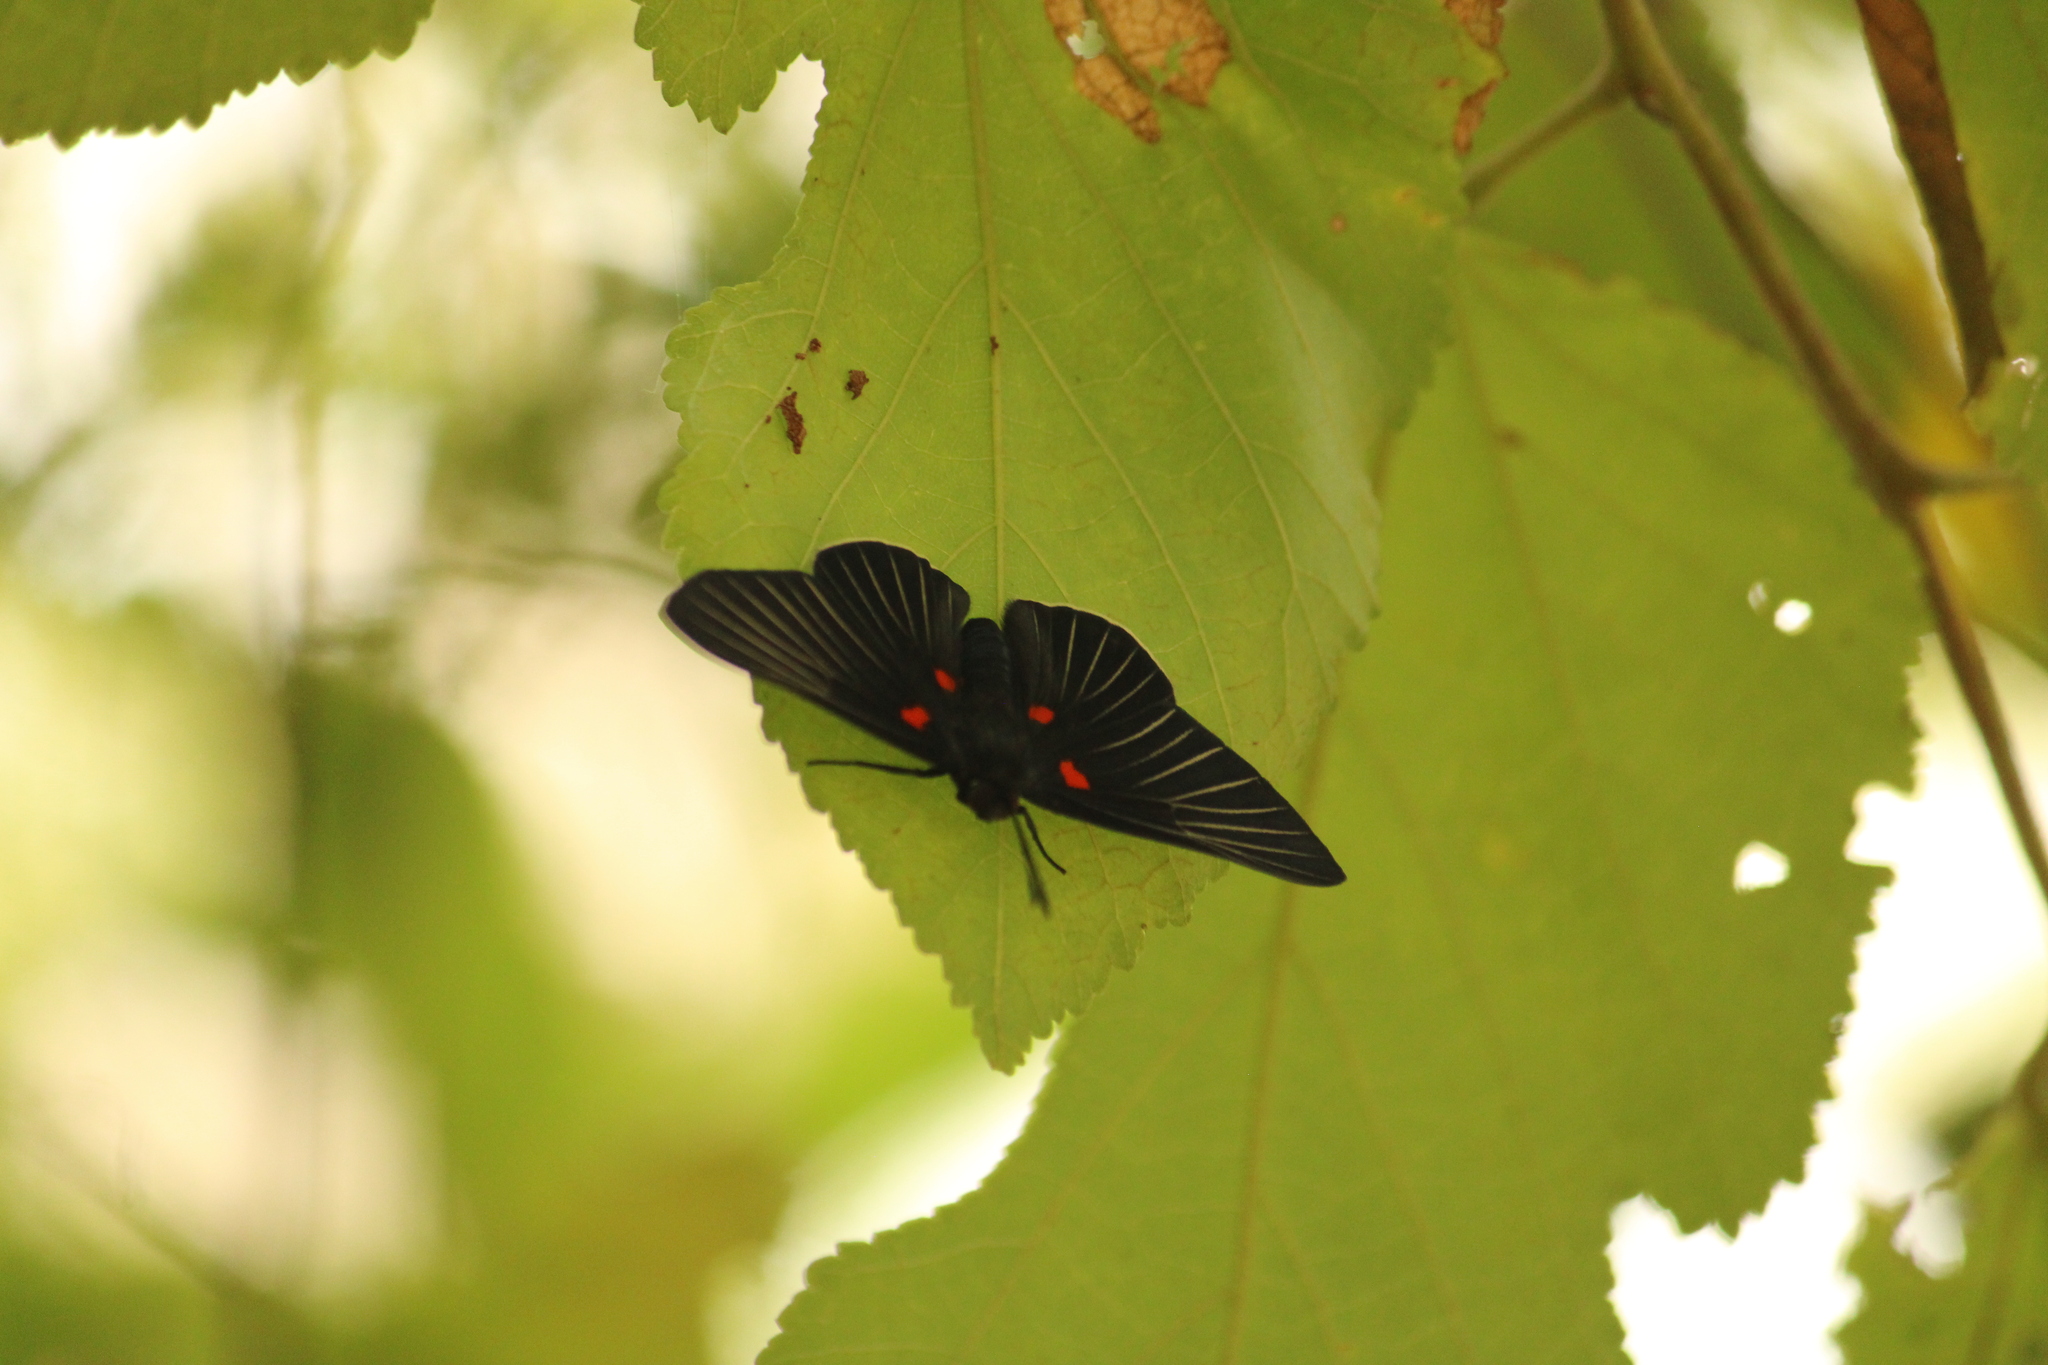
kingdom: Animalia
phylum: Arthropoda
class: Insecta
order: Lepidoptera
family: Lycaenidae
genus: Melanis
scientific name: Melanis
